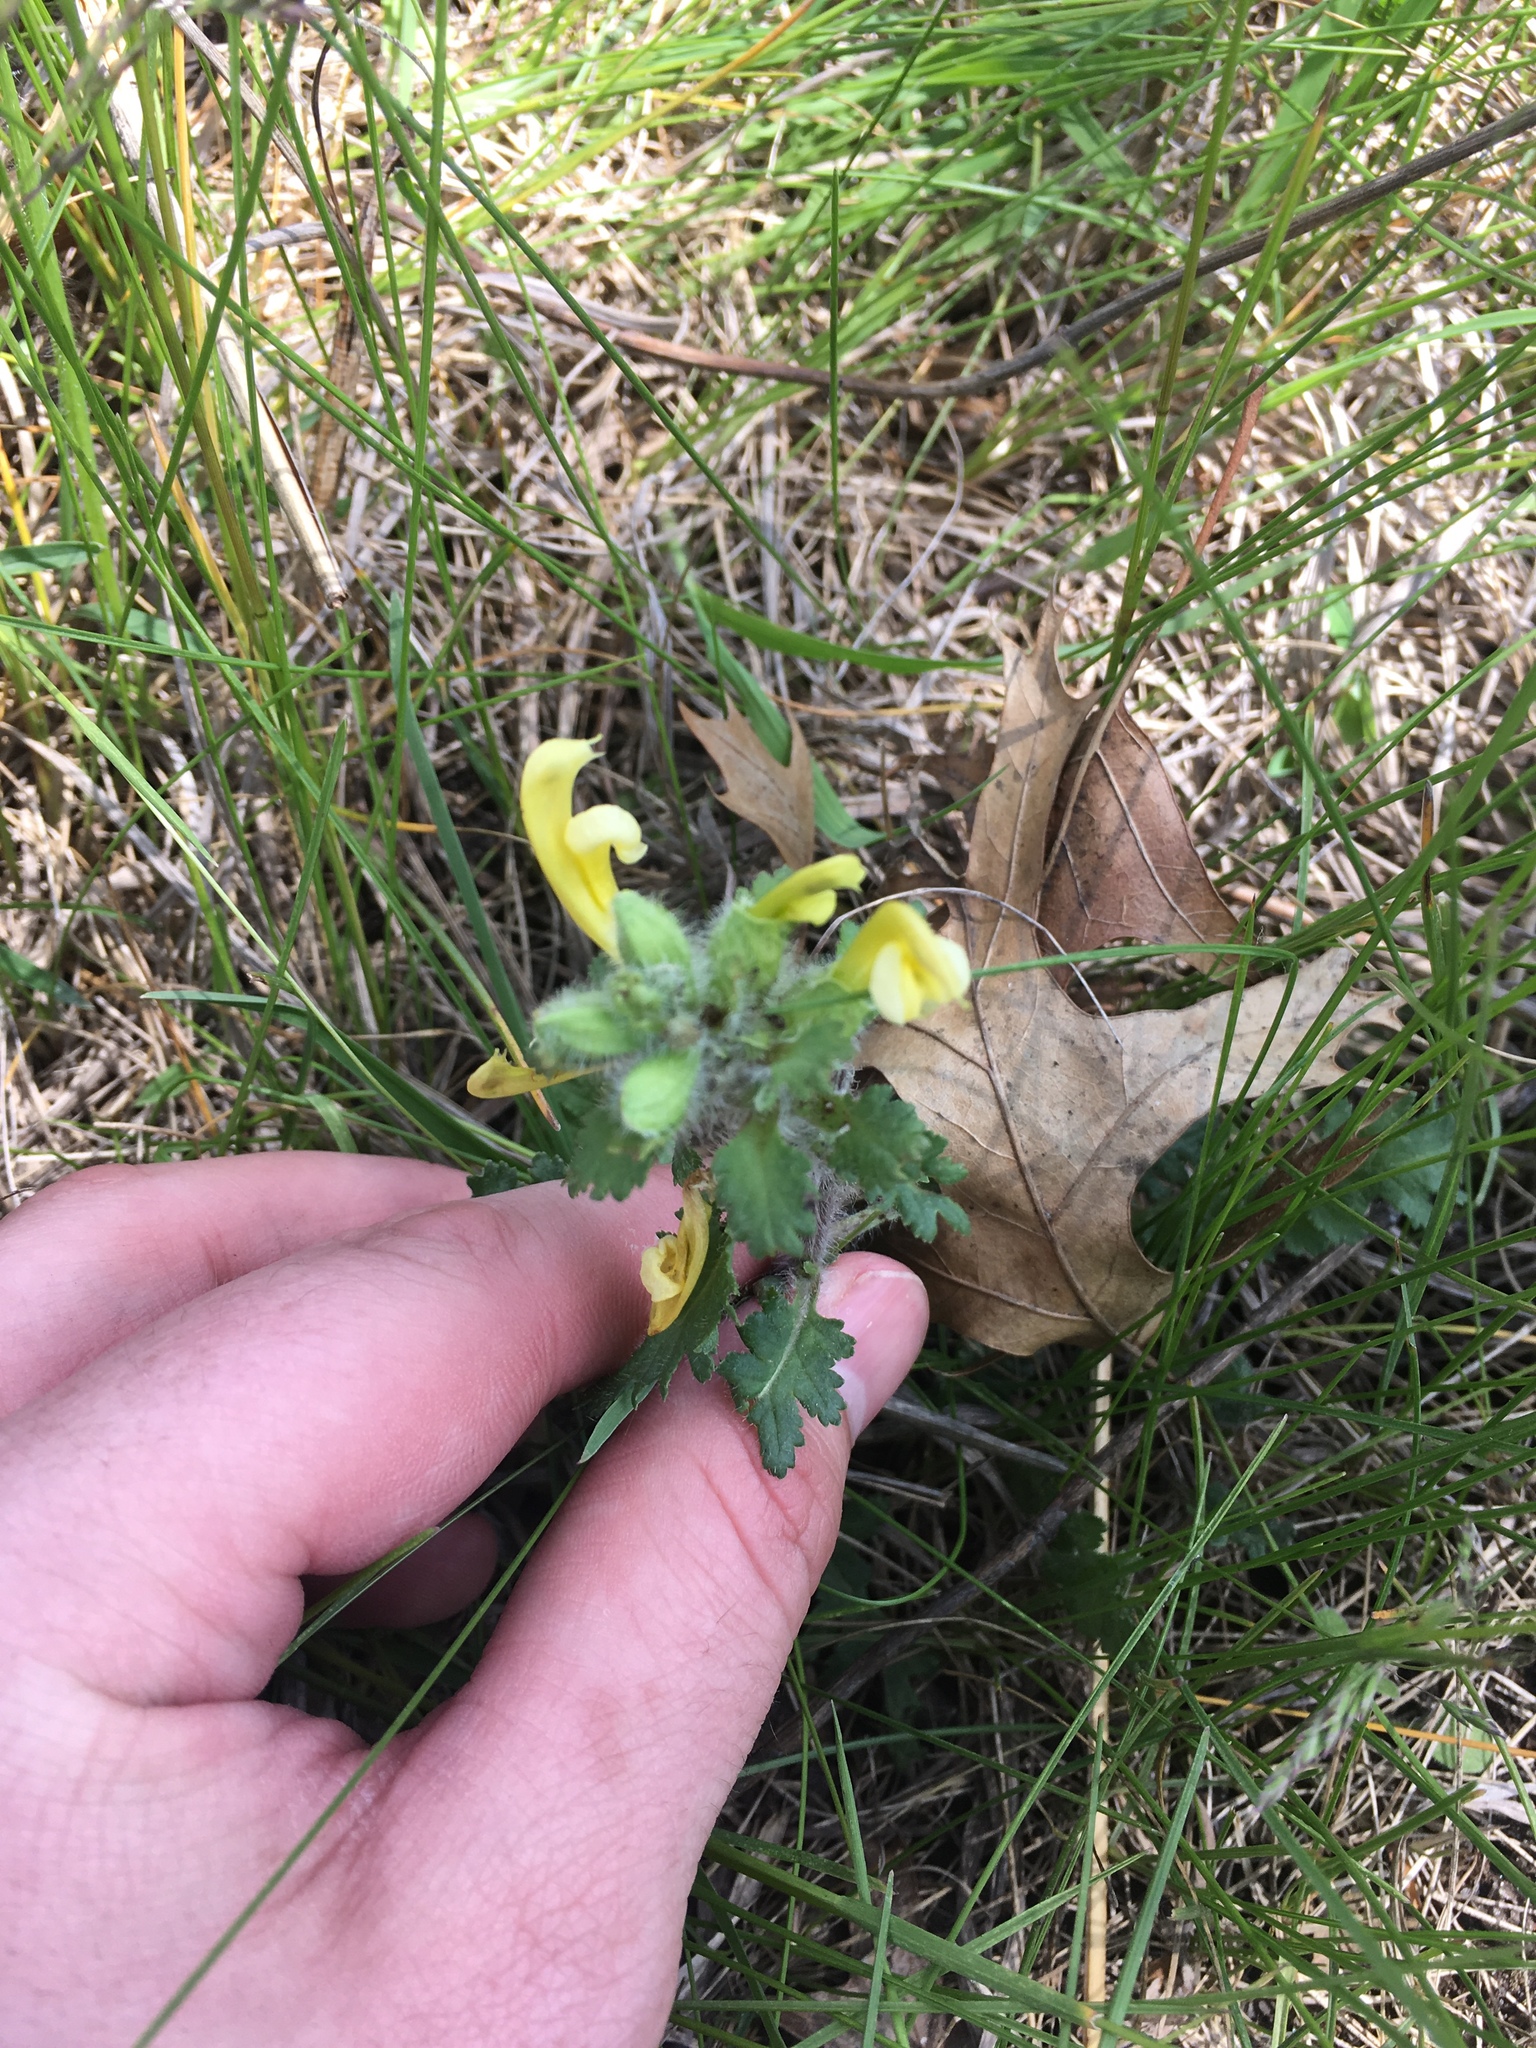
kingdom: Plantae
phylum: Tracheophyta
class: Magnoliopsida
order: Lamiales
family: Orobanchaceae
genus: Pedicularis
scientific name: Pedicularis canadensis
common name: Early lousewort
